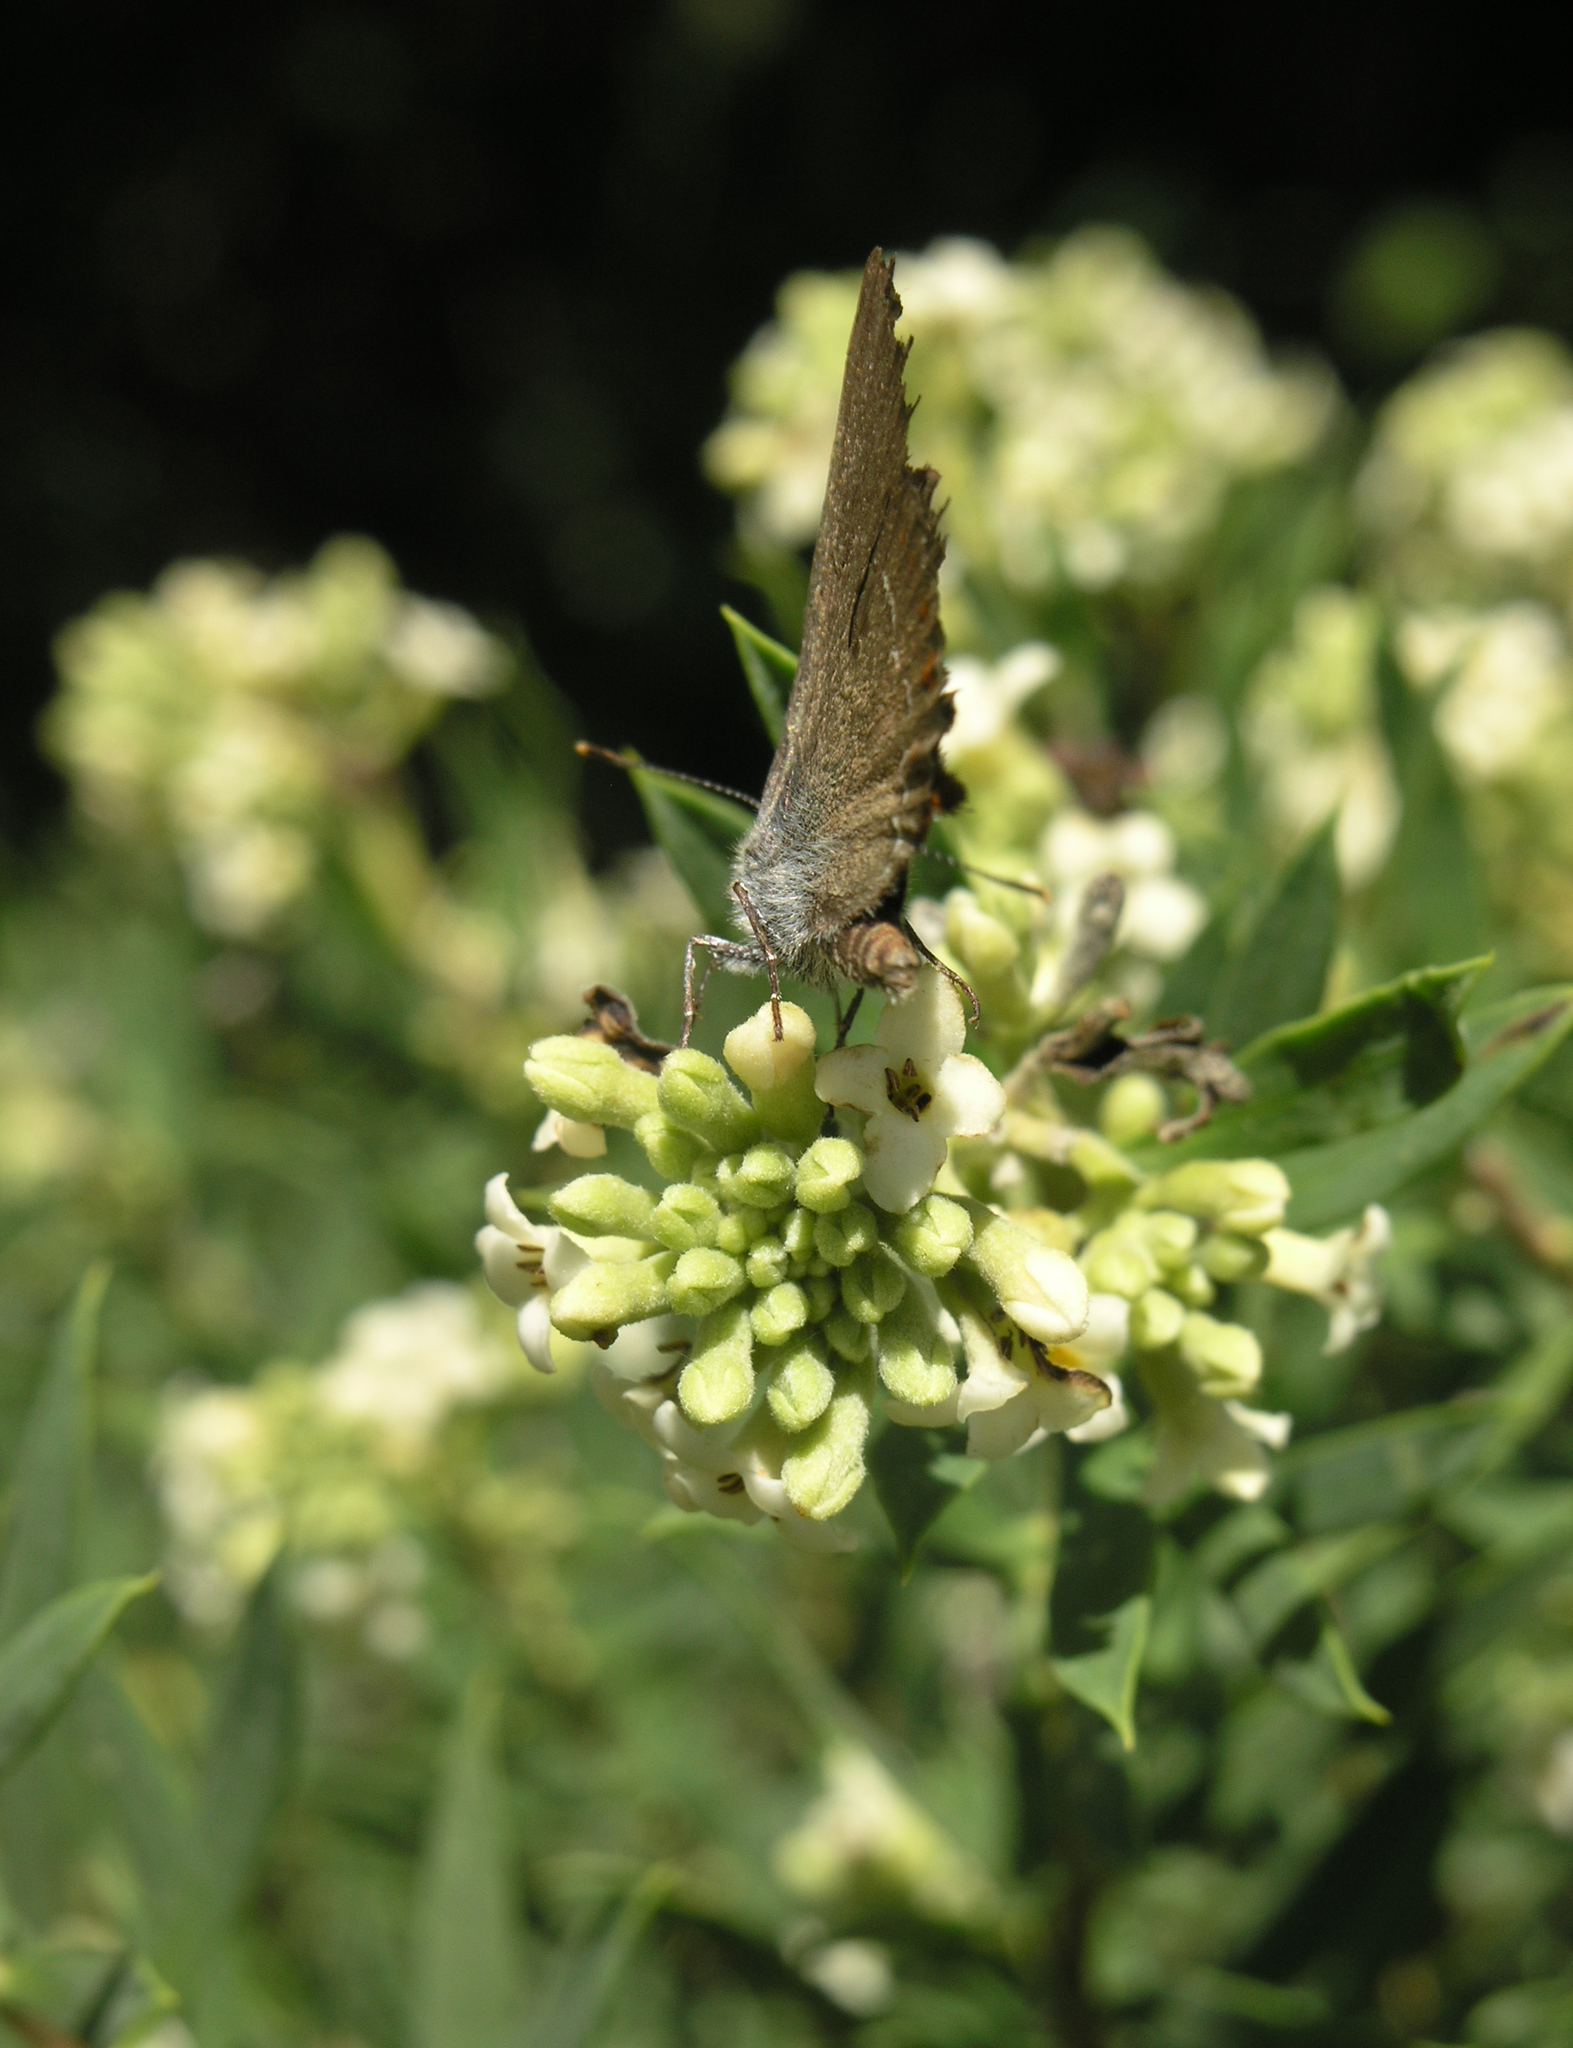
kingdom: Animalia
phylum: Arthropoda
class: Insecta
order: Lepidoptera
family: Lycaenidae
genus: Fixsenia
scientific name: Fixsenia esculi
